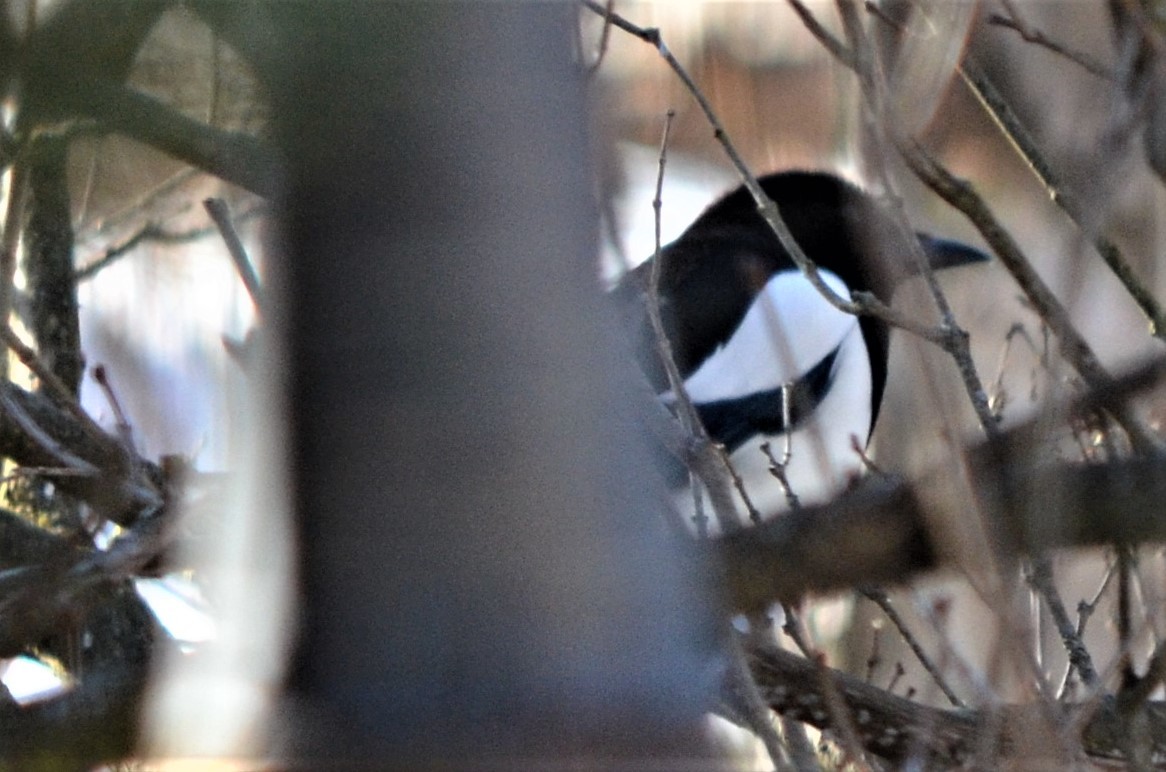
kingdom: Animalia
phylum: Chordata
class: Aves
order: Passeriformes
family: Corvidae
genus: Pica
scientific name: Pica pica
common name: Eurasian magpie
